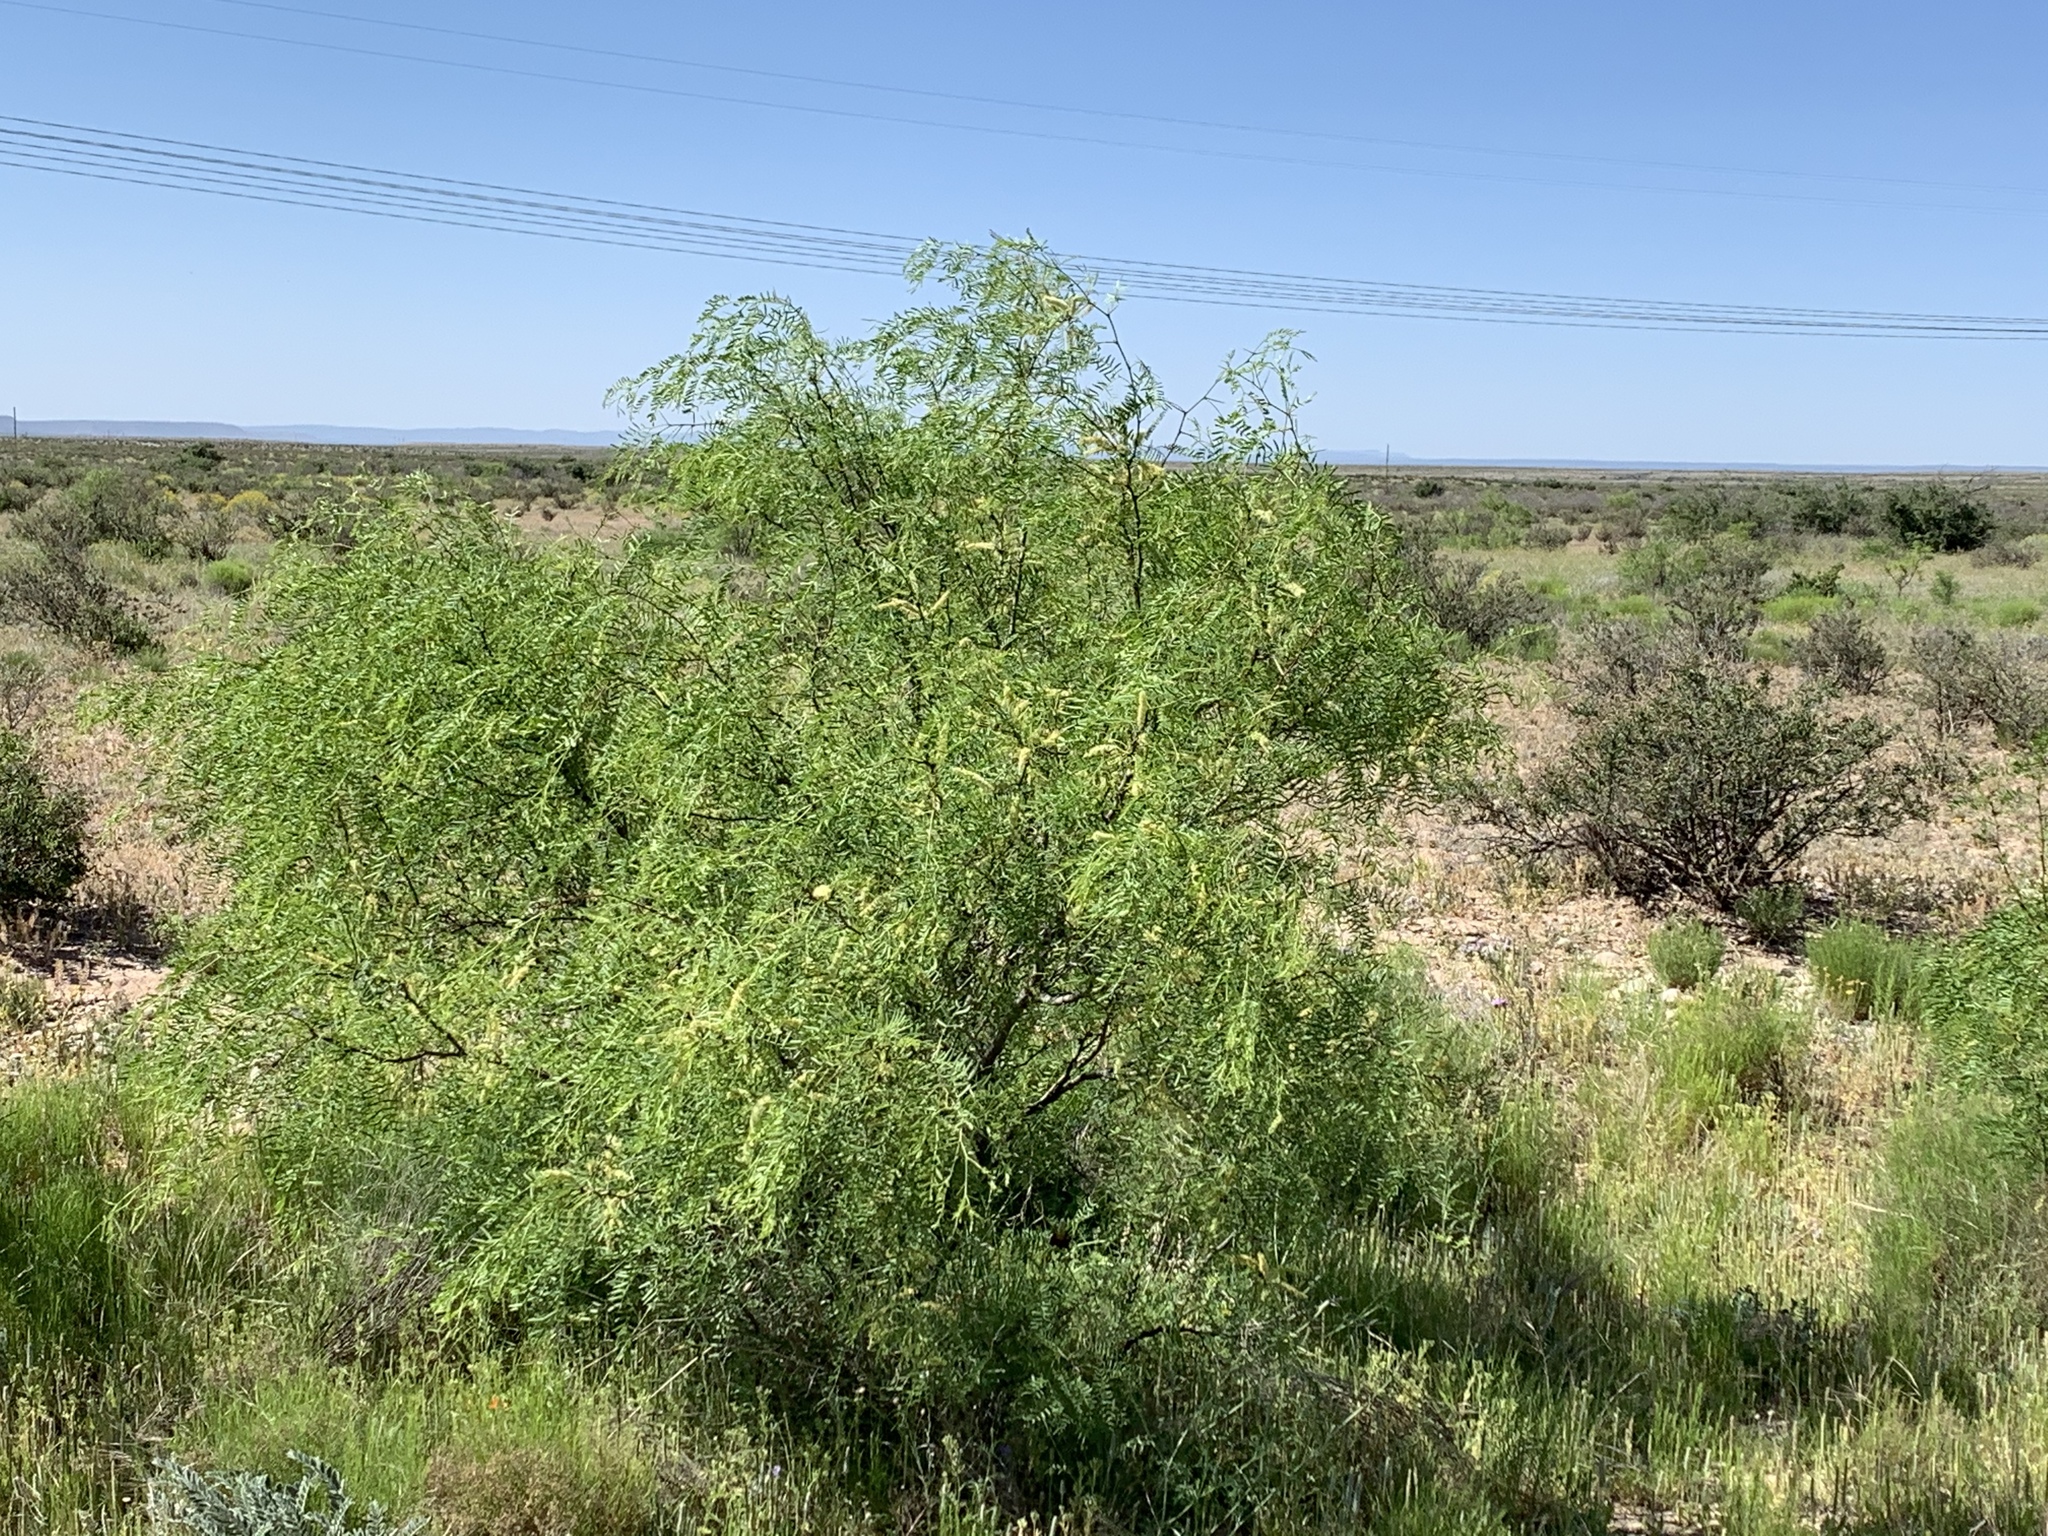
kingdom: Plantae
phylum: Tracheophyta
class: Magnoliopsida
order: Fabales
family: Fabaceae
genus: Prosopis
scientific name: Prosopis glandulosa
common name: Honey mesquite
